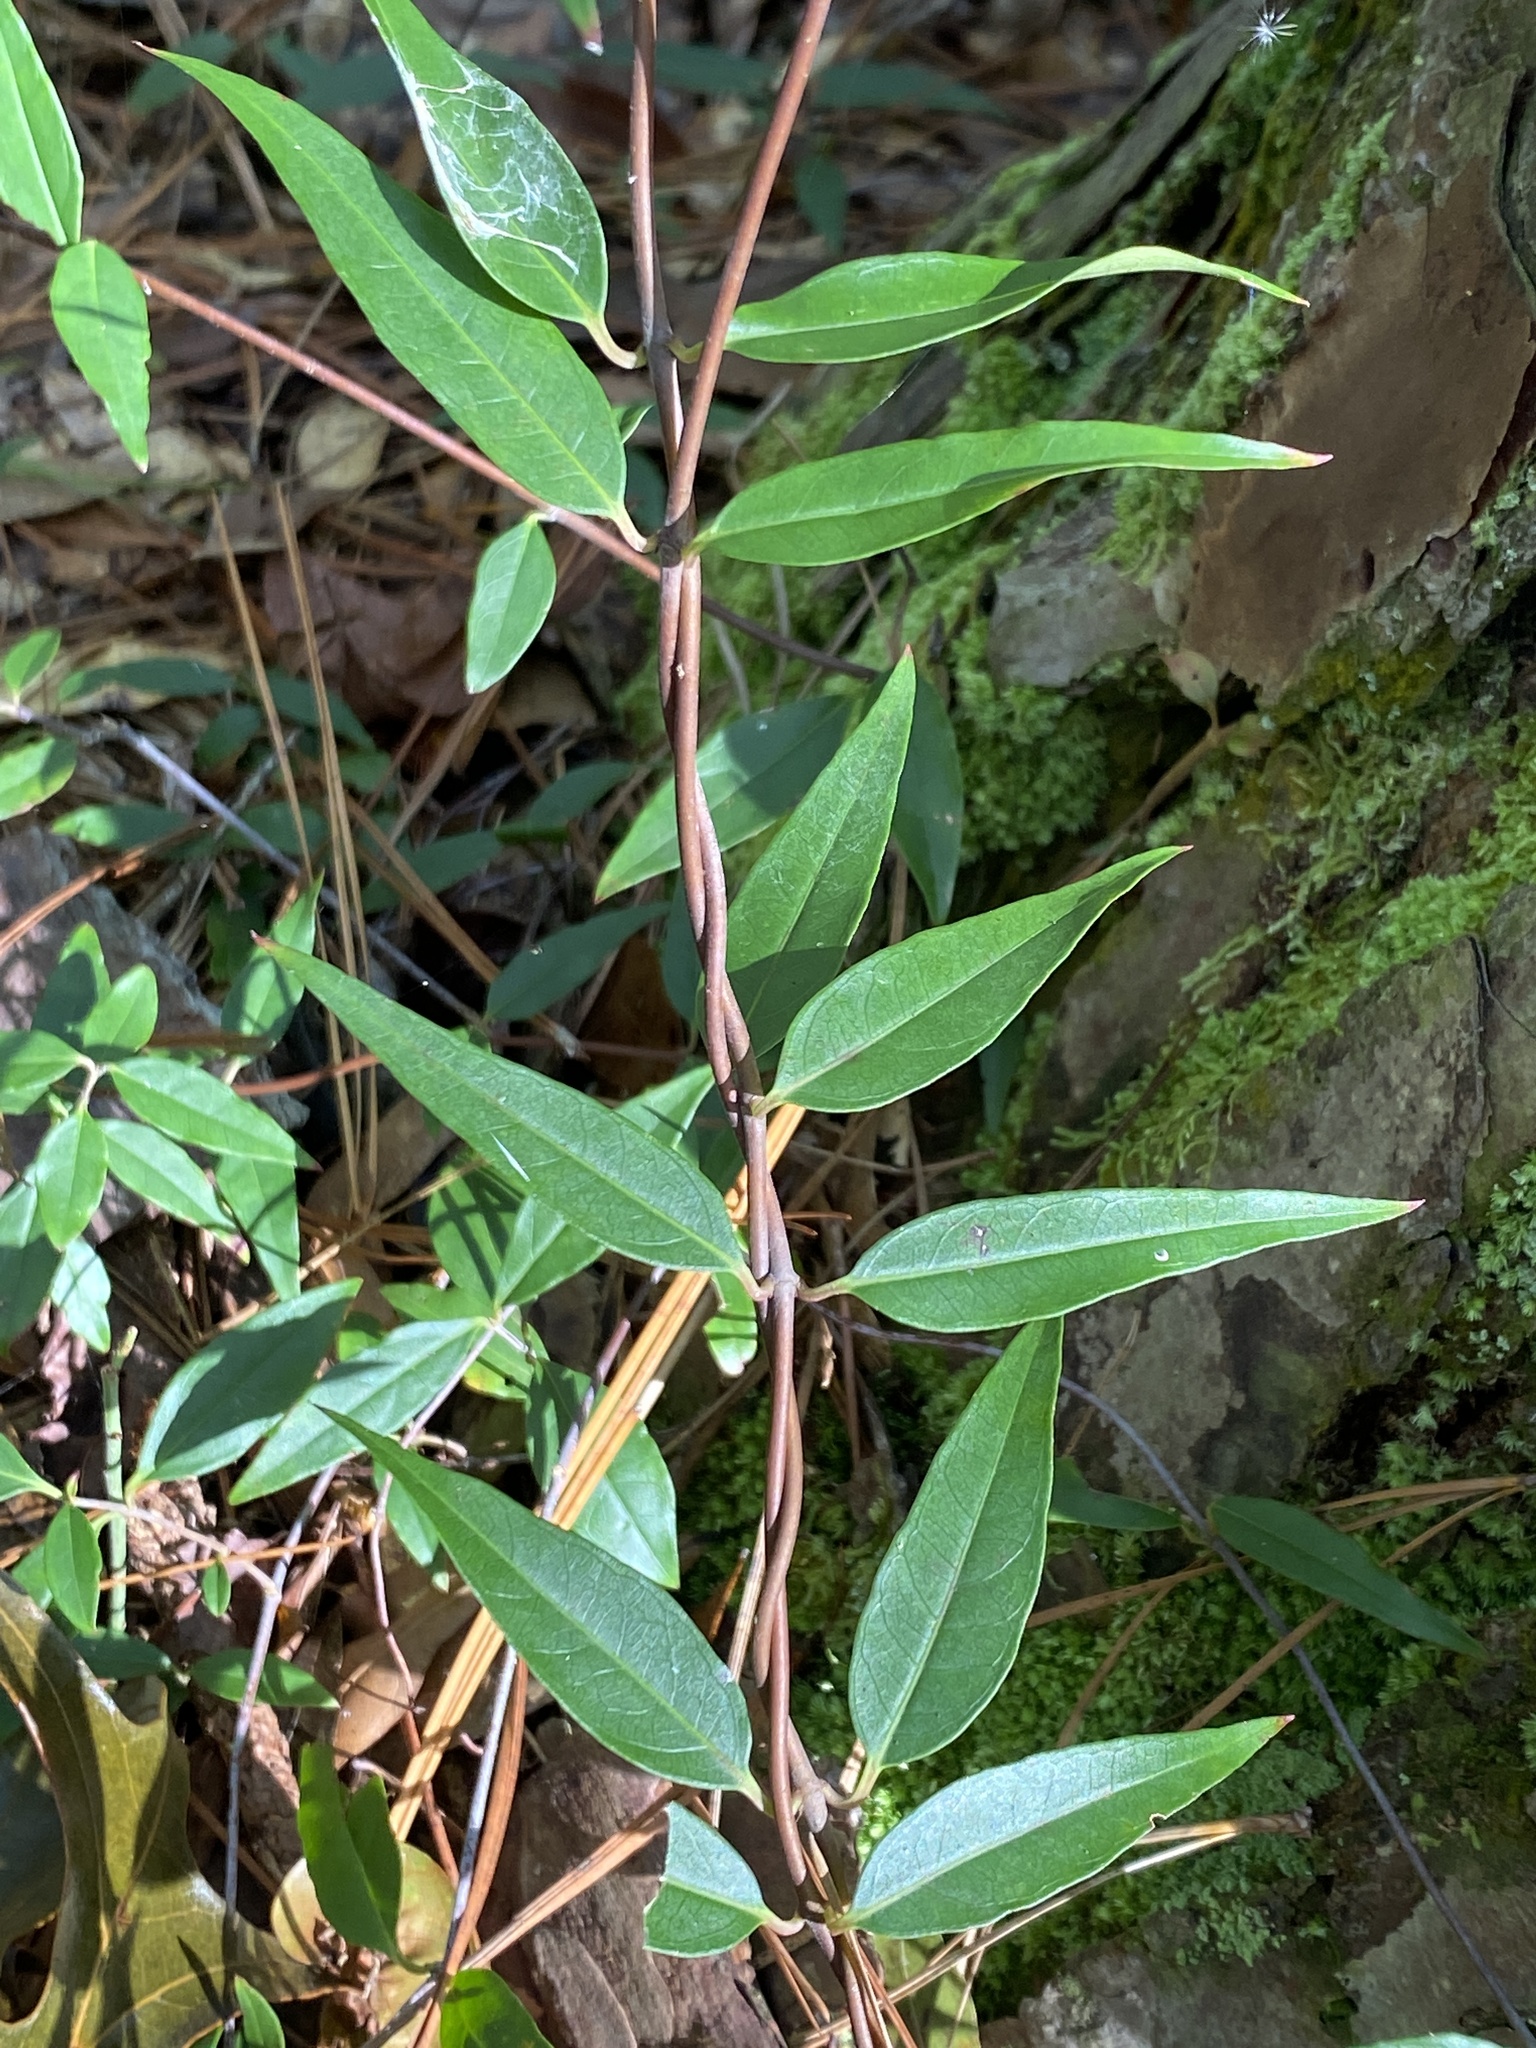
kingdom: Plantae
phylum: Tracheophyta
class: Magnoliopsida
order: Gentianales
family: Gelsemiaceae
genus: Gelsemium
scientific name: Gelsemium sempervirens
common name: Carolina-jasmine
